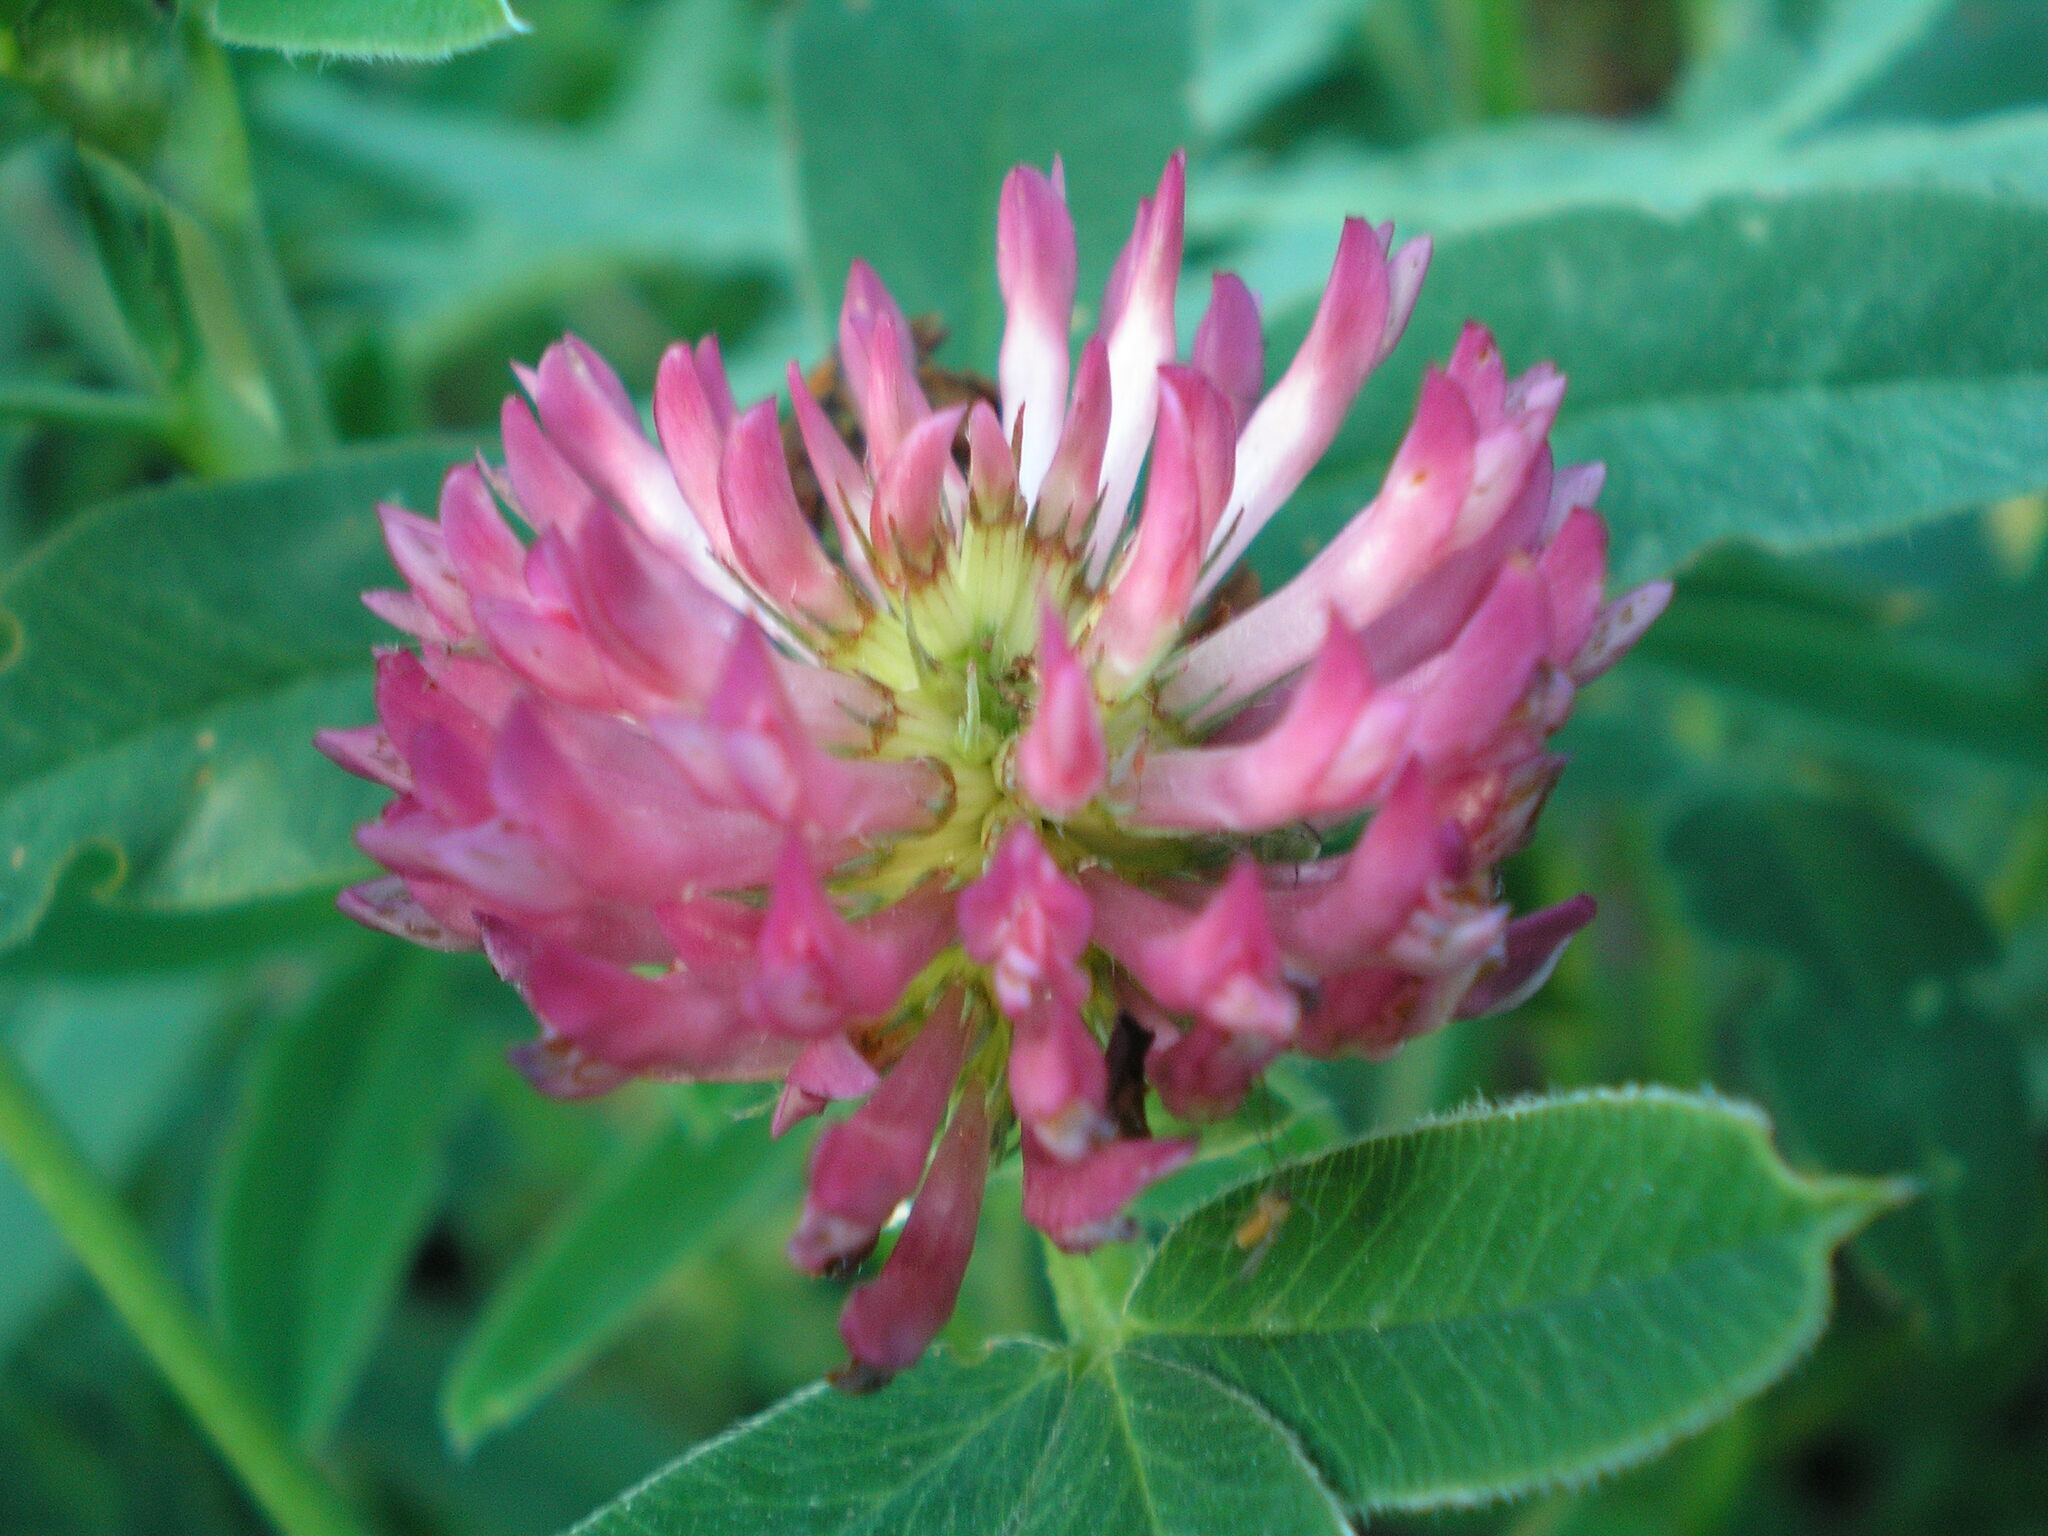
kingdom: Plantae
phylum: Tracheophyta
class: Magnoliopsida
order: Fabales
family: Fabaceae
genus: Trifolium
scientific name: Trifolium medium
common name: Zigzag clover
